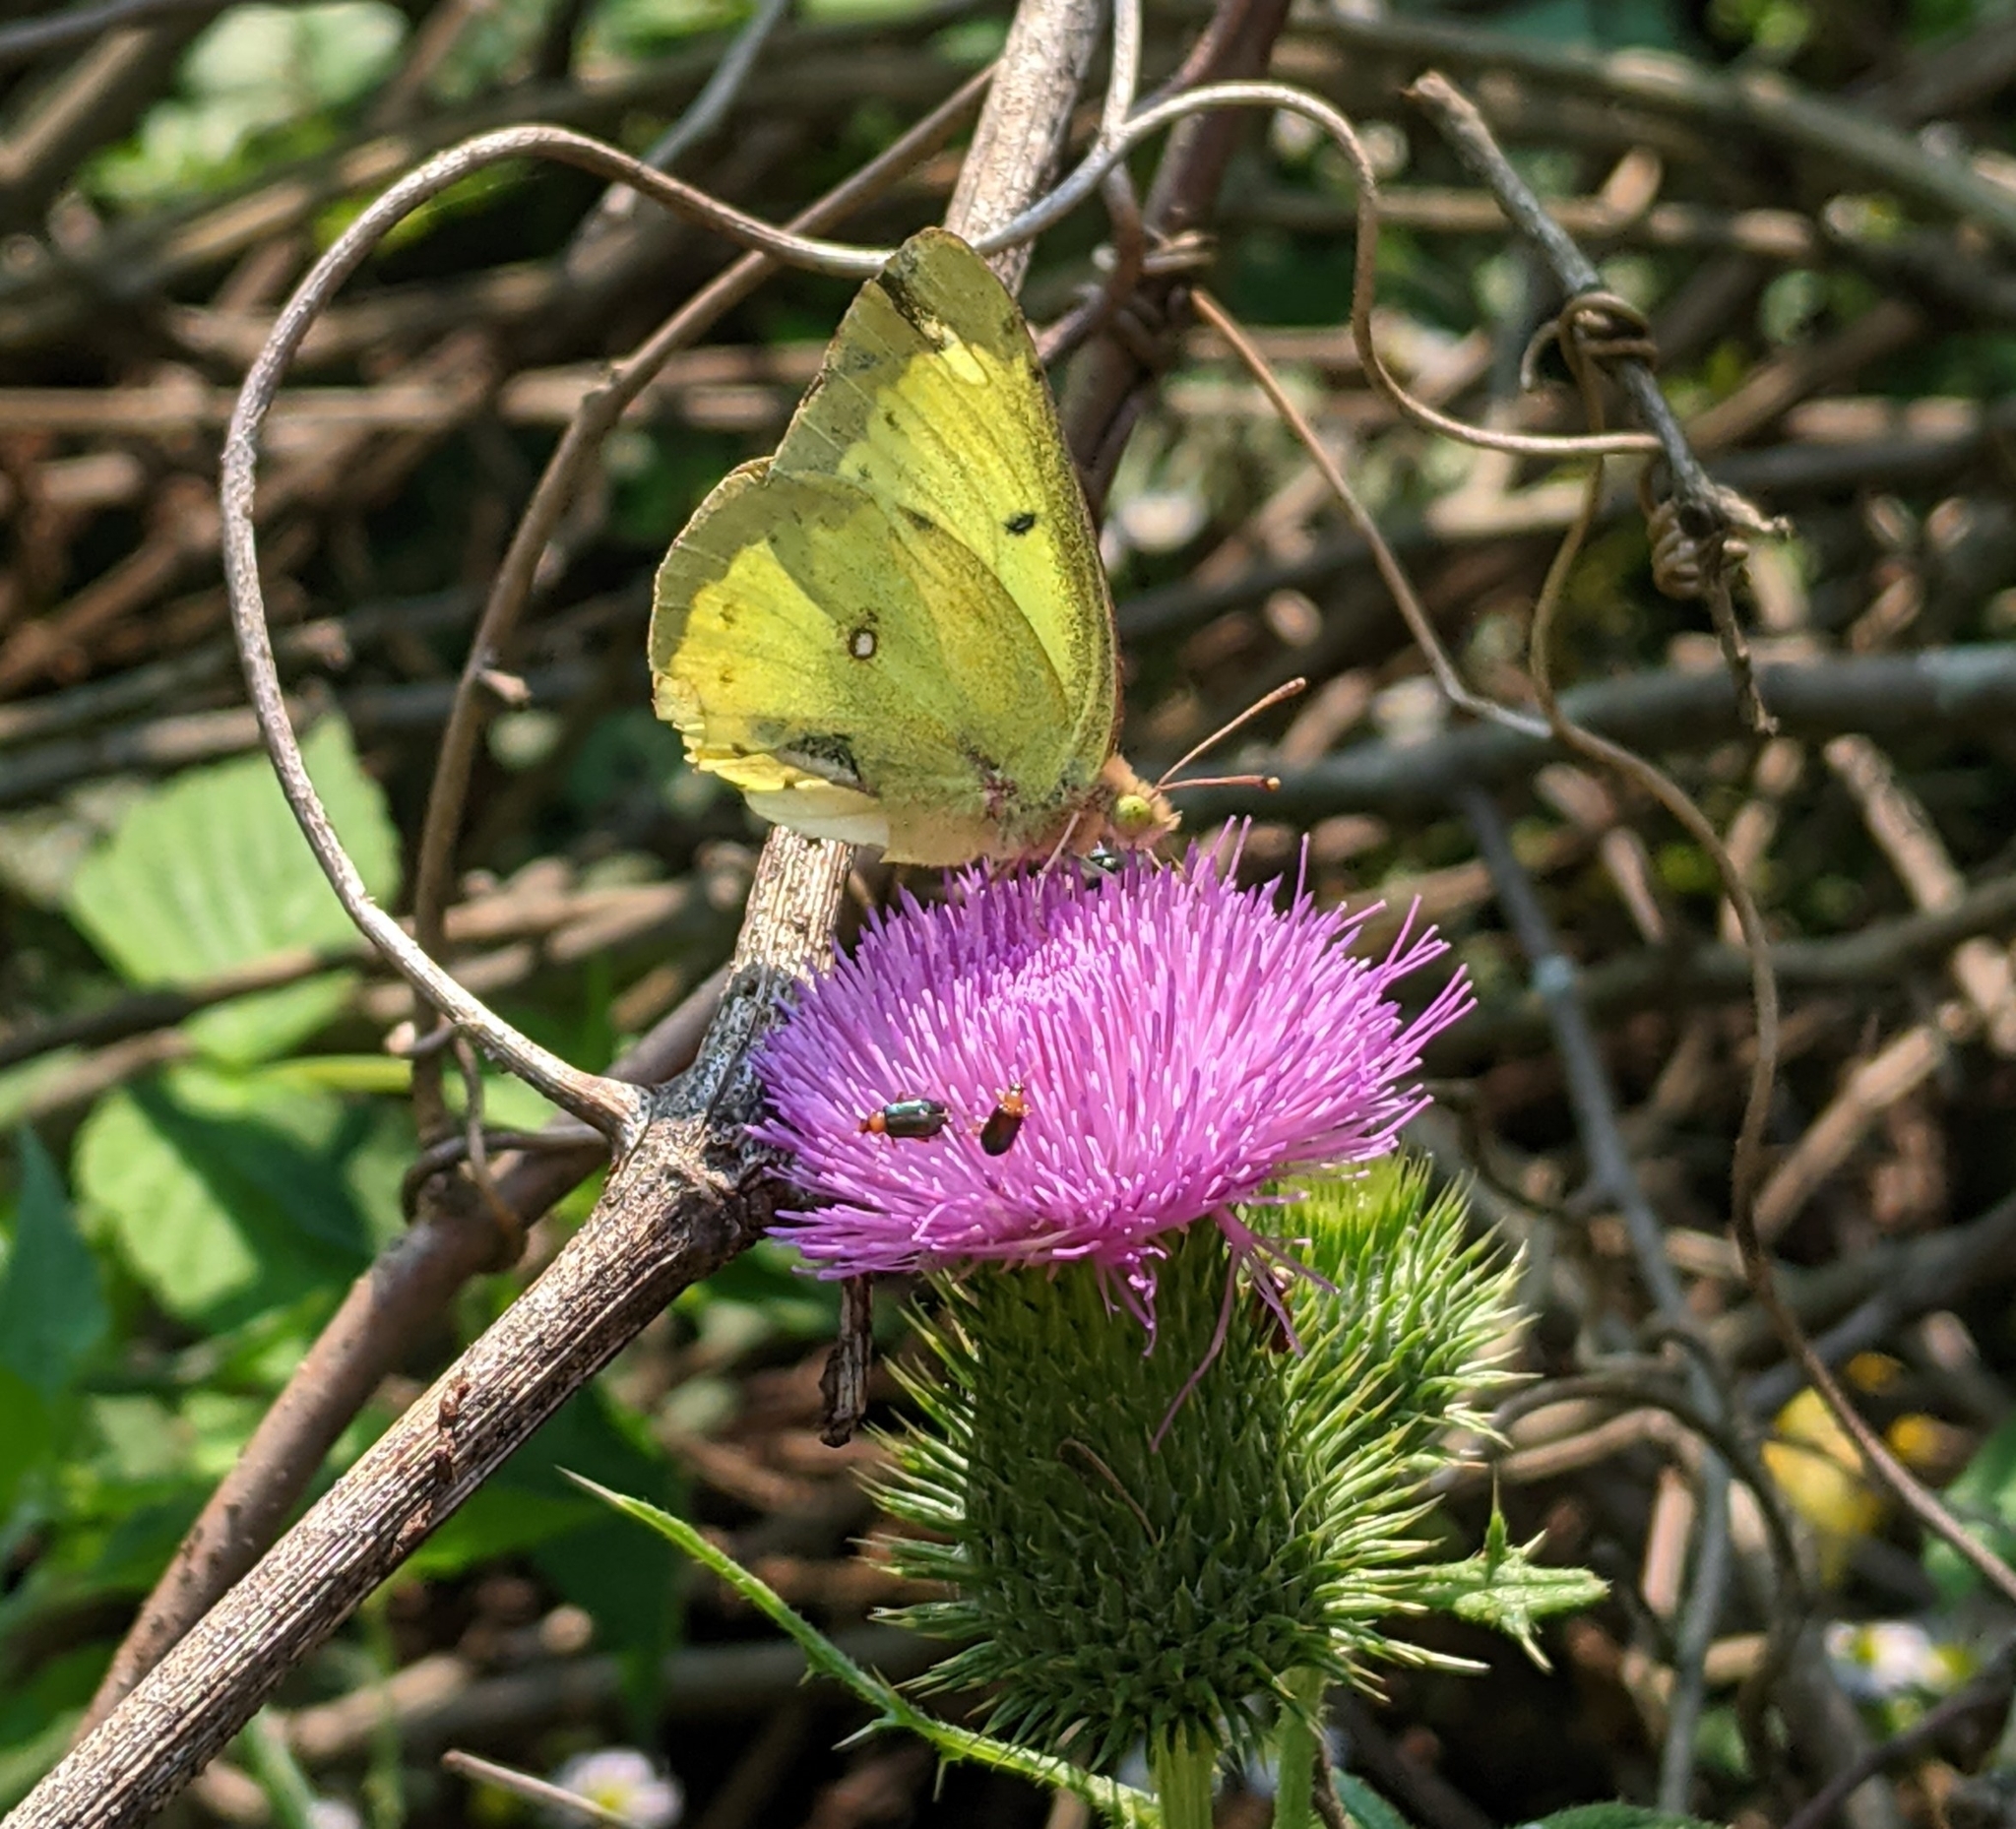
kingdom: Animalia
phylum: Arthropoda
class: Insecta
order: Lepidoptera
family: Pieridae
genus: Colias
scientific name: Colias philodice
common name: Clouded sulphur
